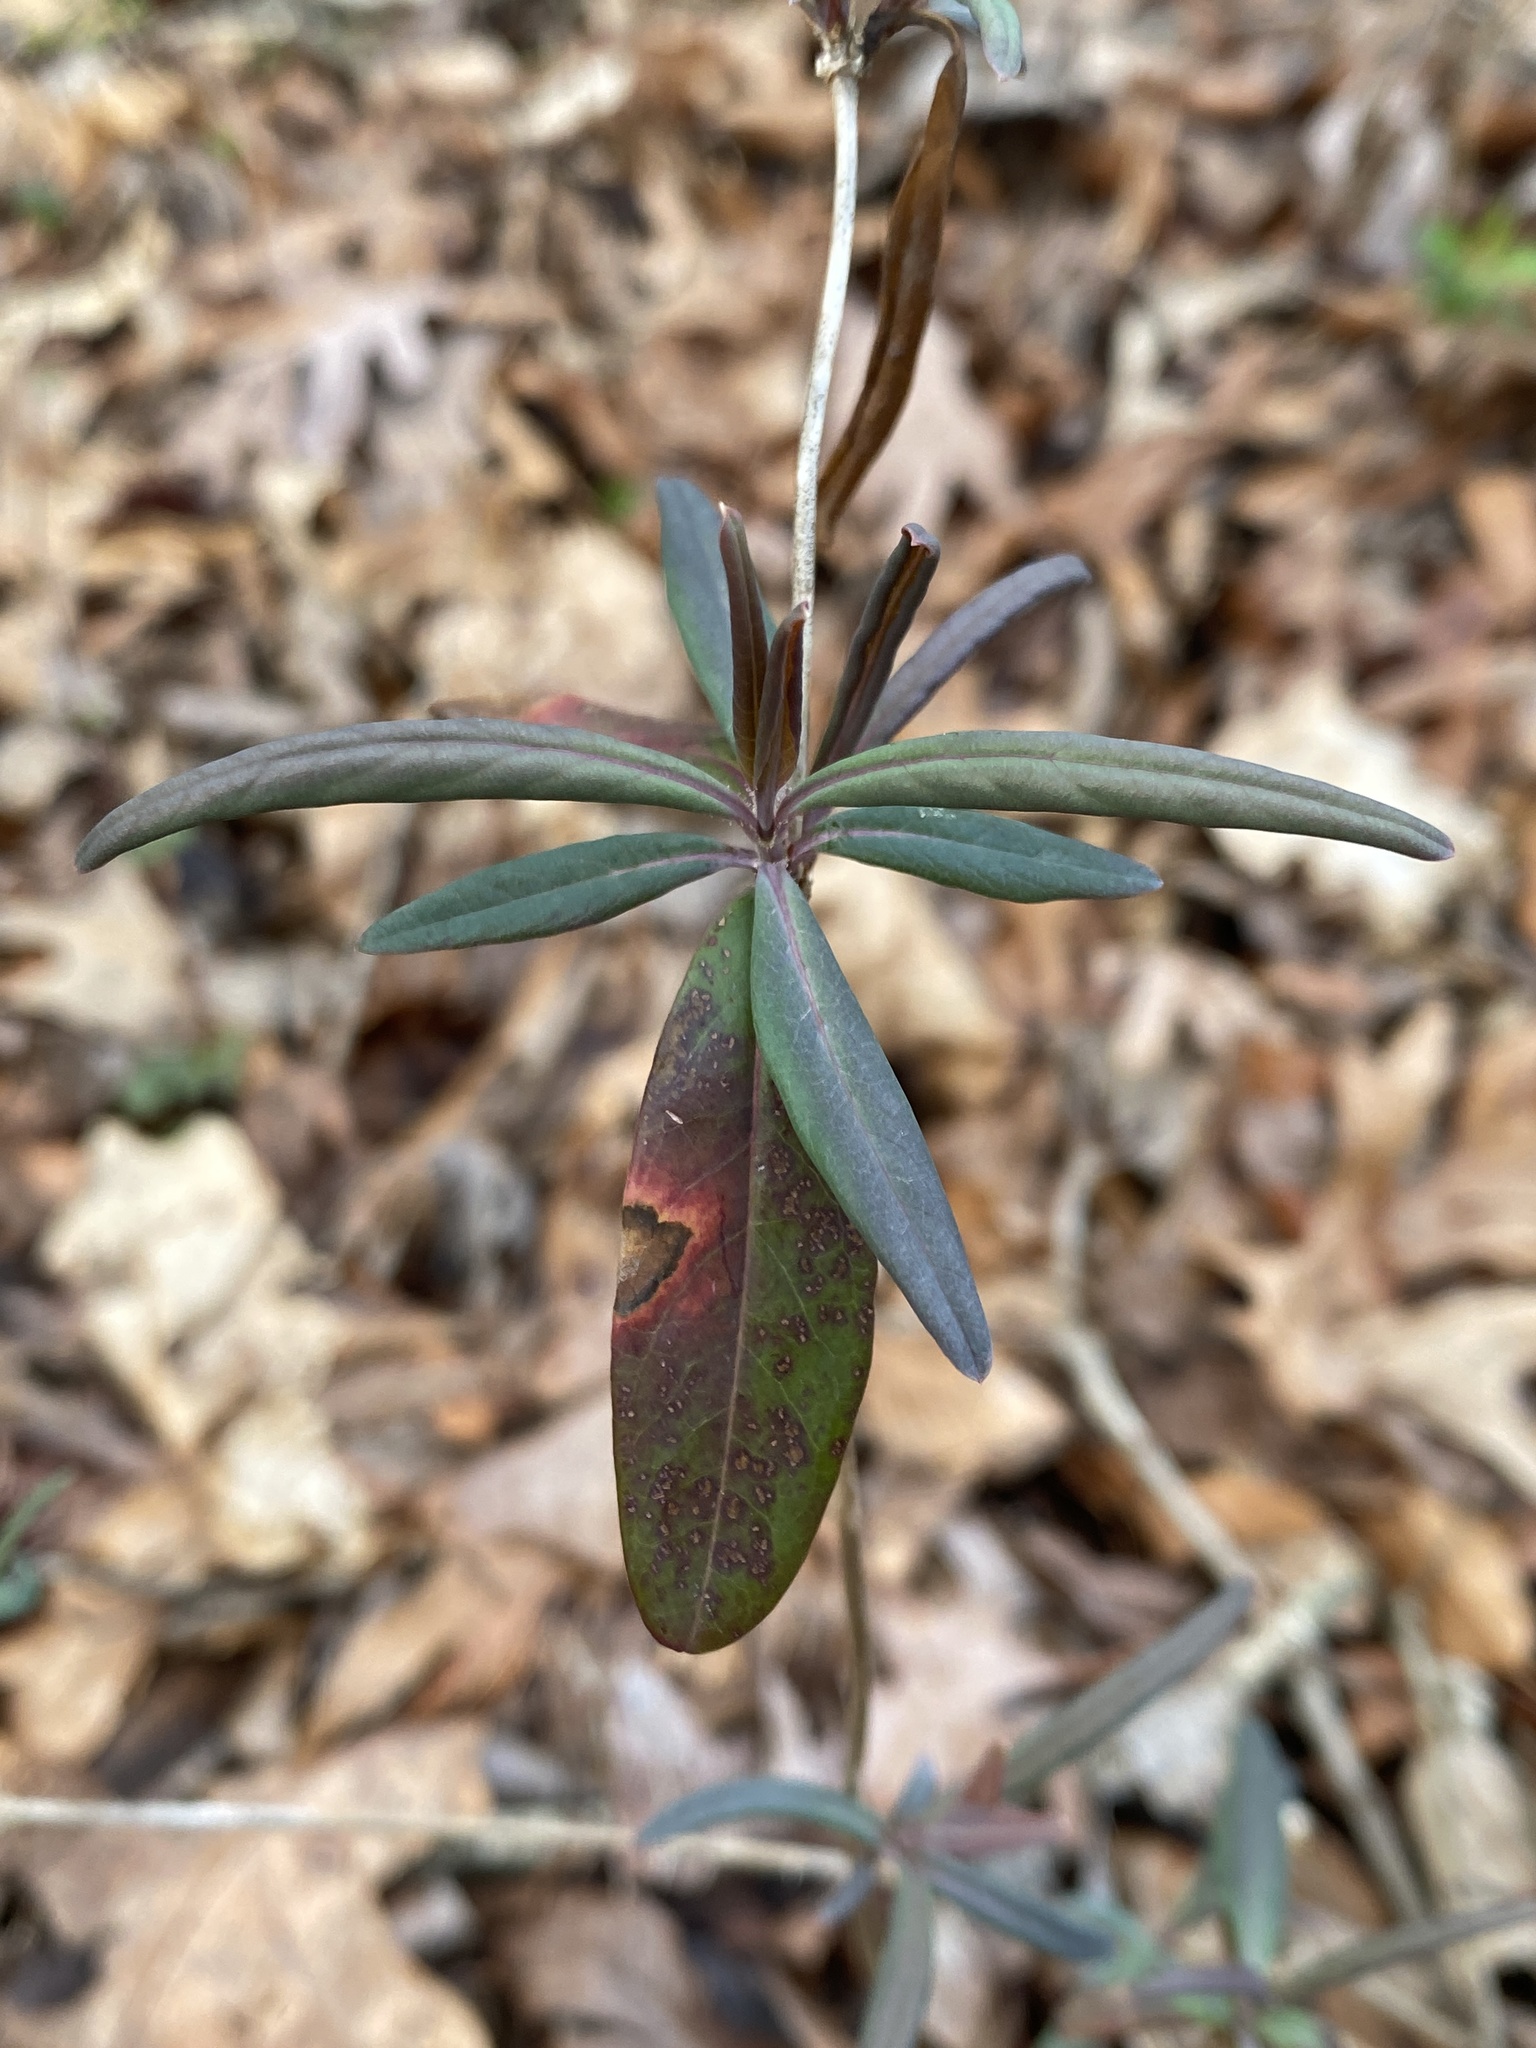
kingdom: Plantae
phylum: Tracheophyta
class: Magnoliopsida
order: Dipsacales
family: Caprifoliaceae
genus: Lonicera
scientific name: Lonicera sempervirens
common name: Coral honeysuckle
